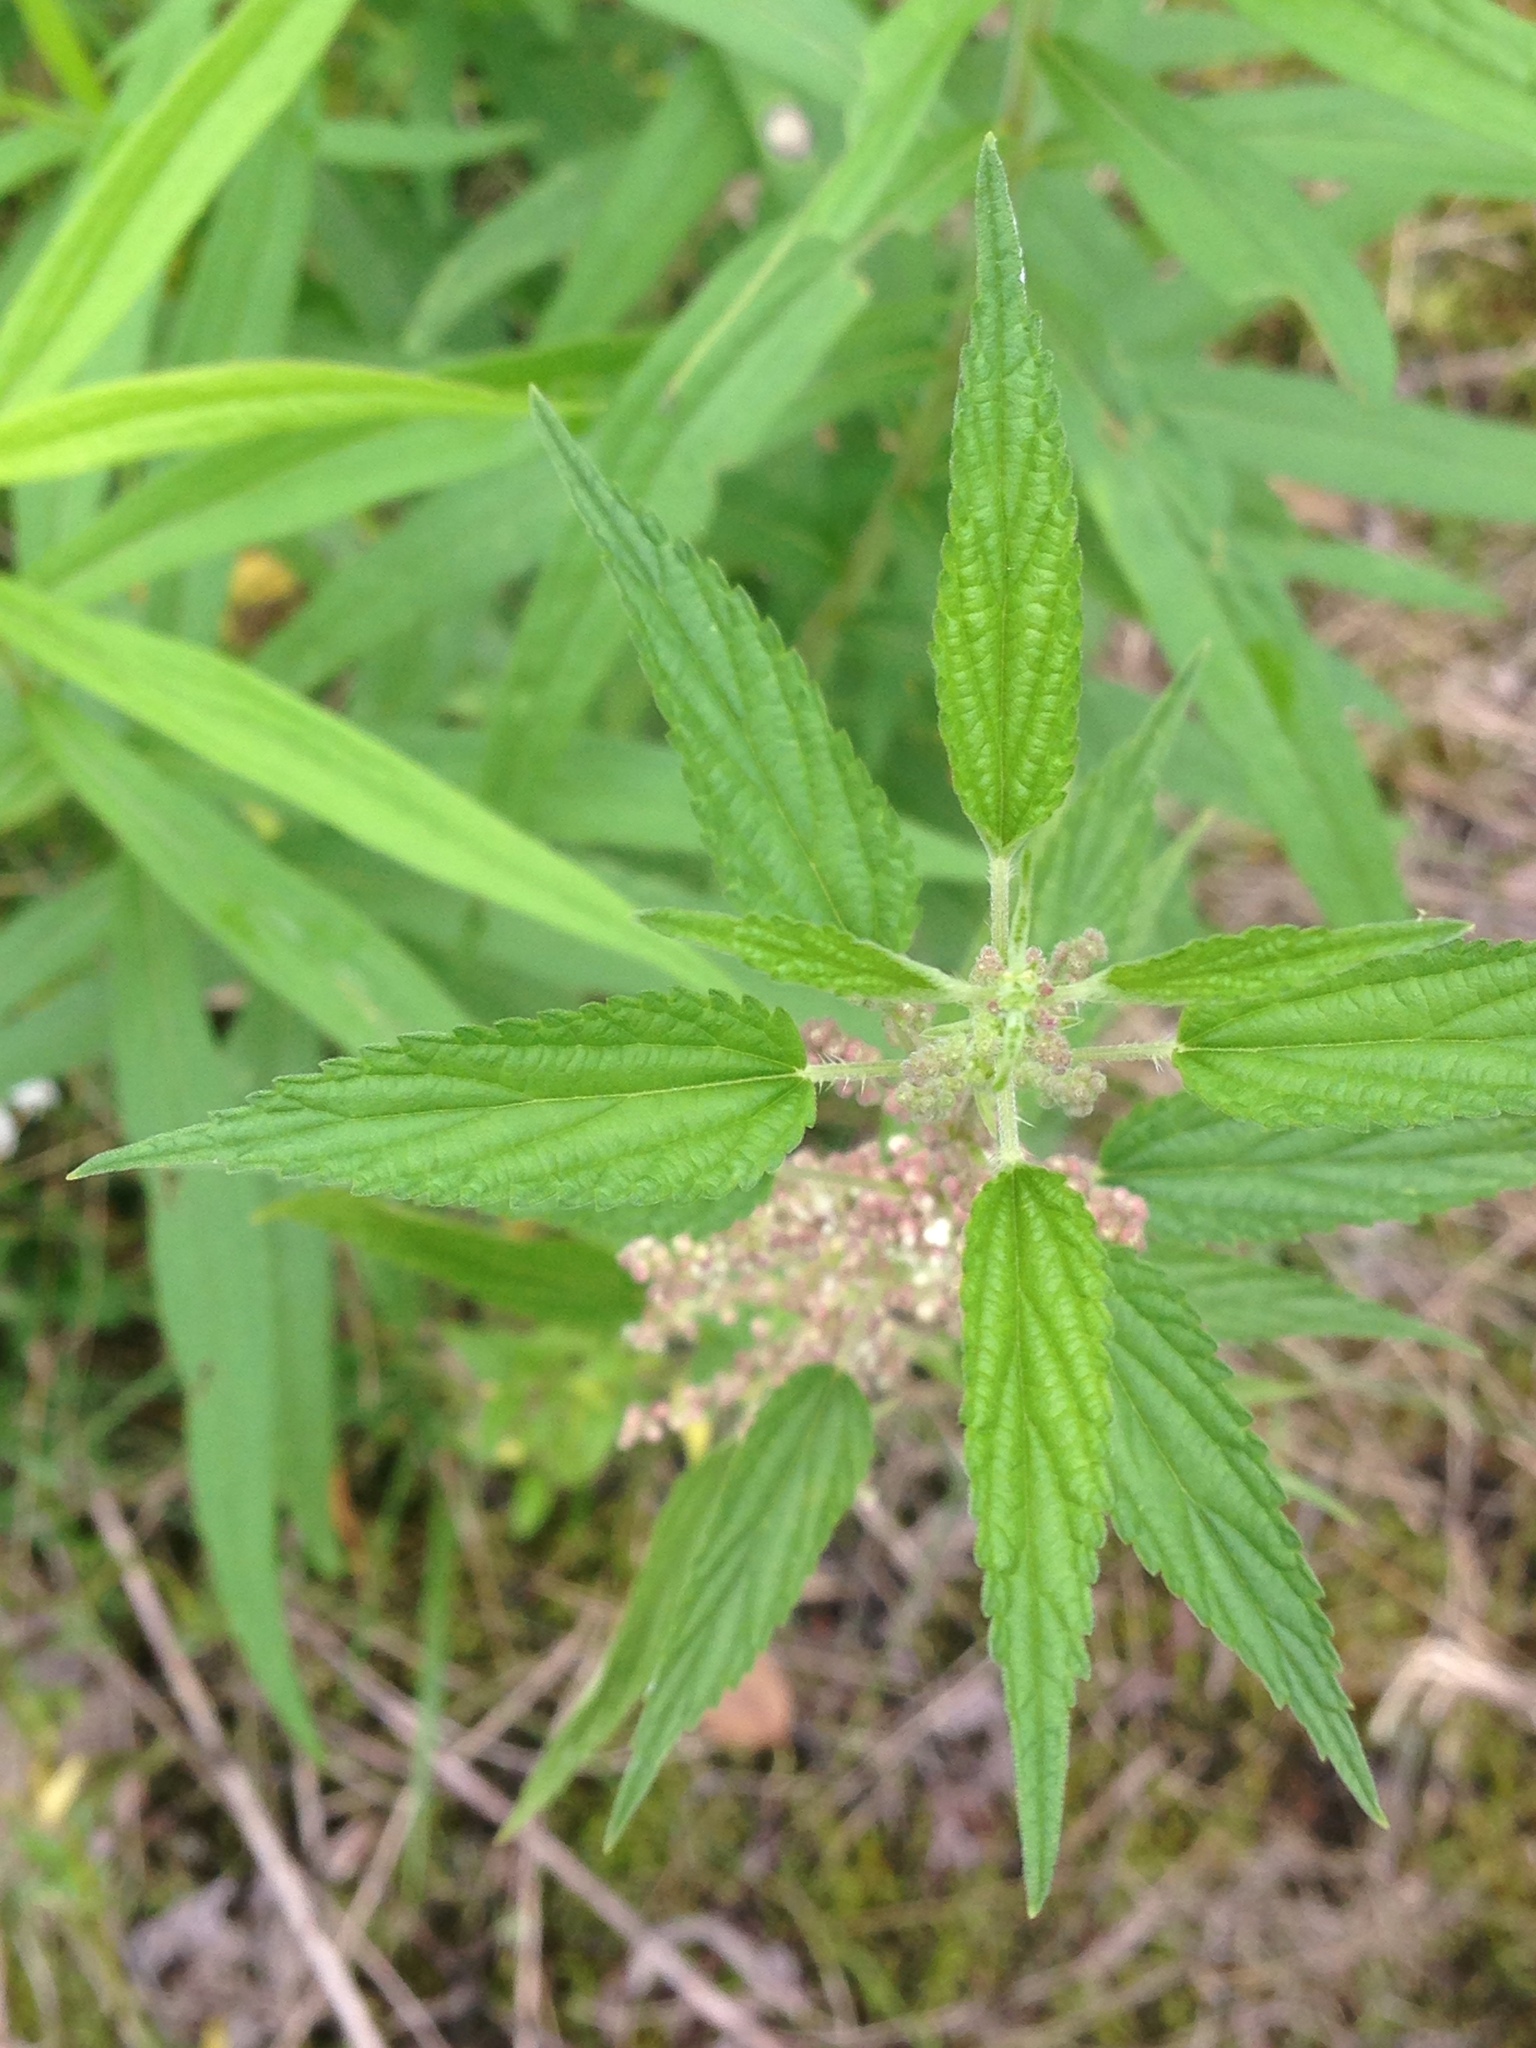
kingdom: Plantae
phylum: Tracheophyta
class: Magnoliopsida
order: Rosales
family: Urticaceae
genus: Urtica
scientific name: Urtica dioica
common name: Common nettle
